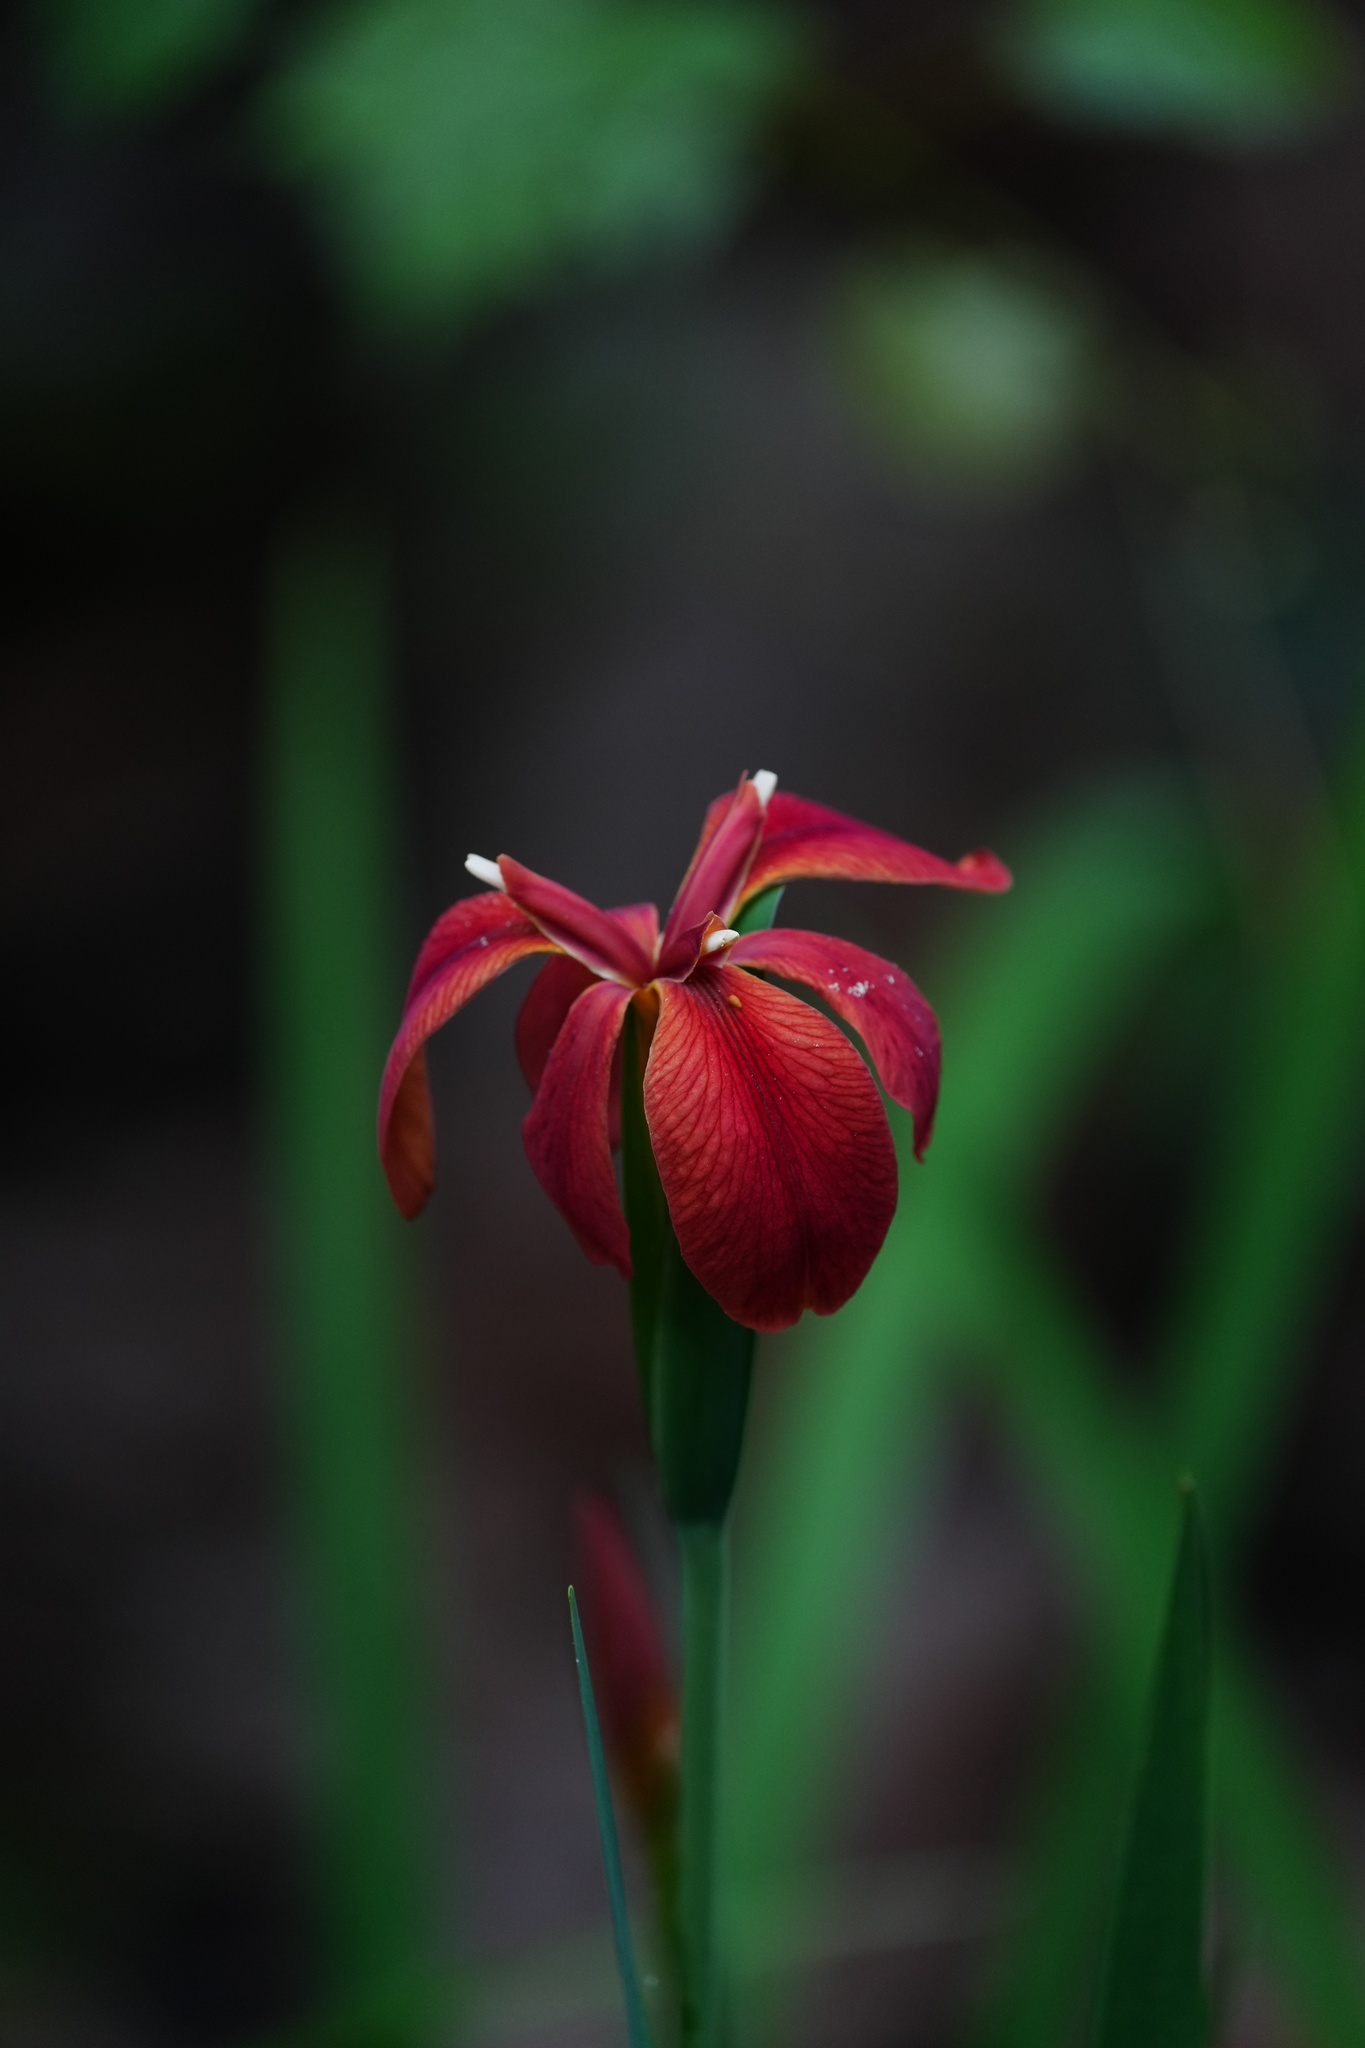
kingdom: Plantae
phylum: Tracheophyta
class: Liliopsida
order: Asparagales
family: Iridaceae
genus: Iris
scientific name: Iris fulva
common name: Copper iris
